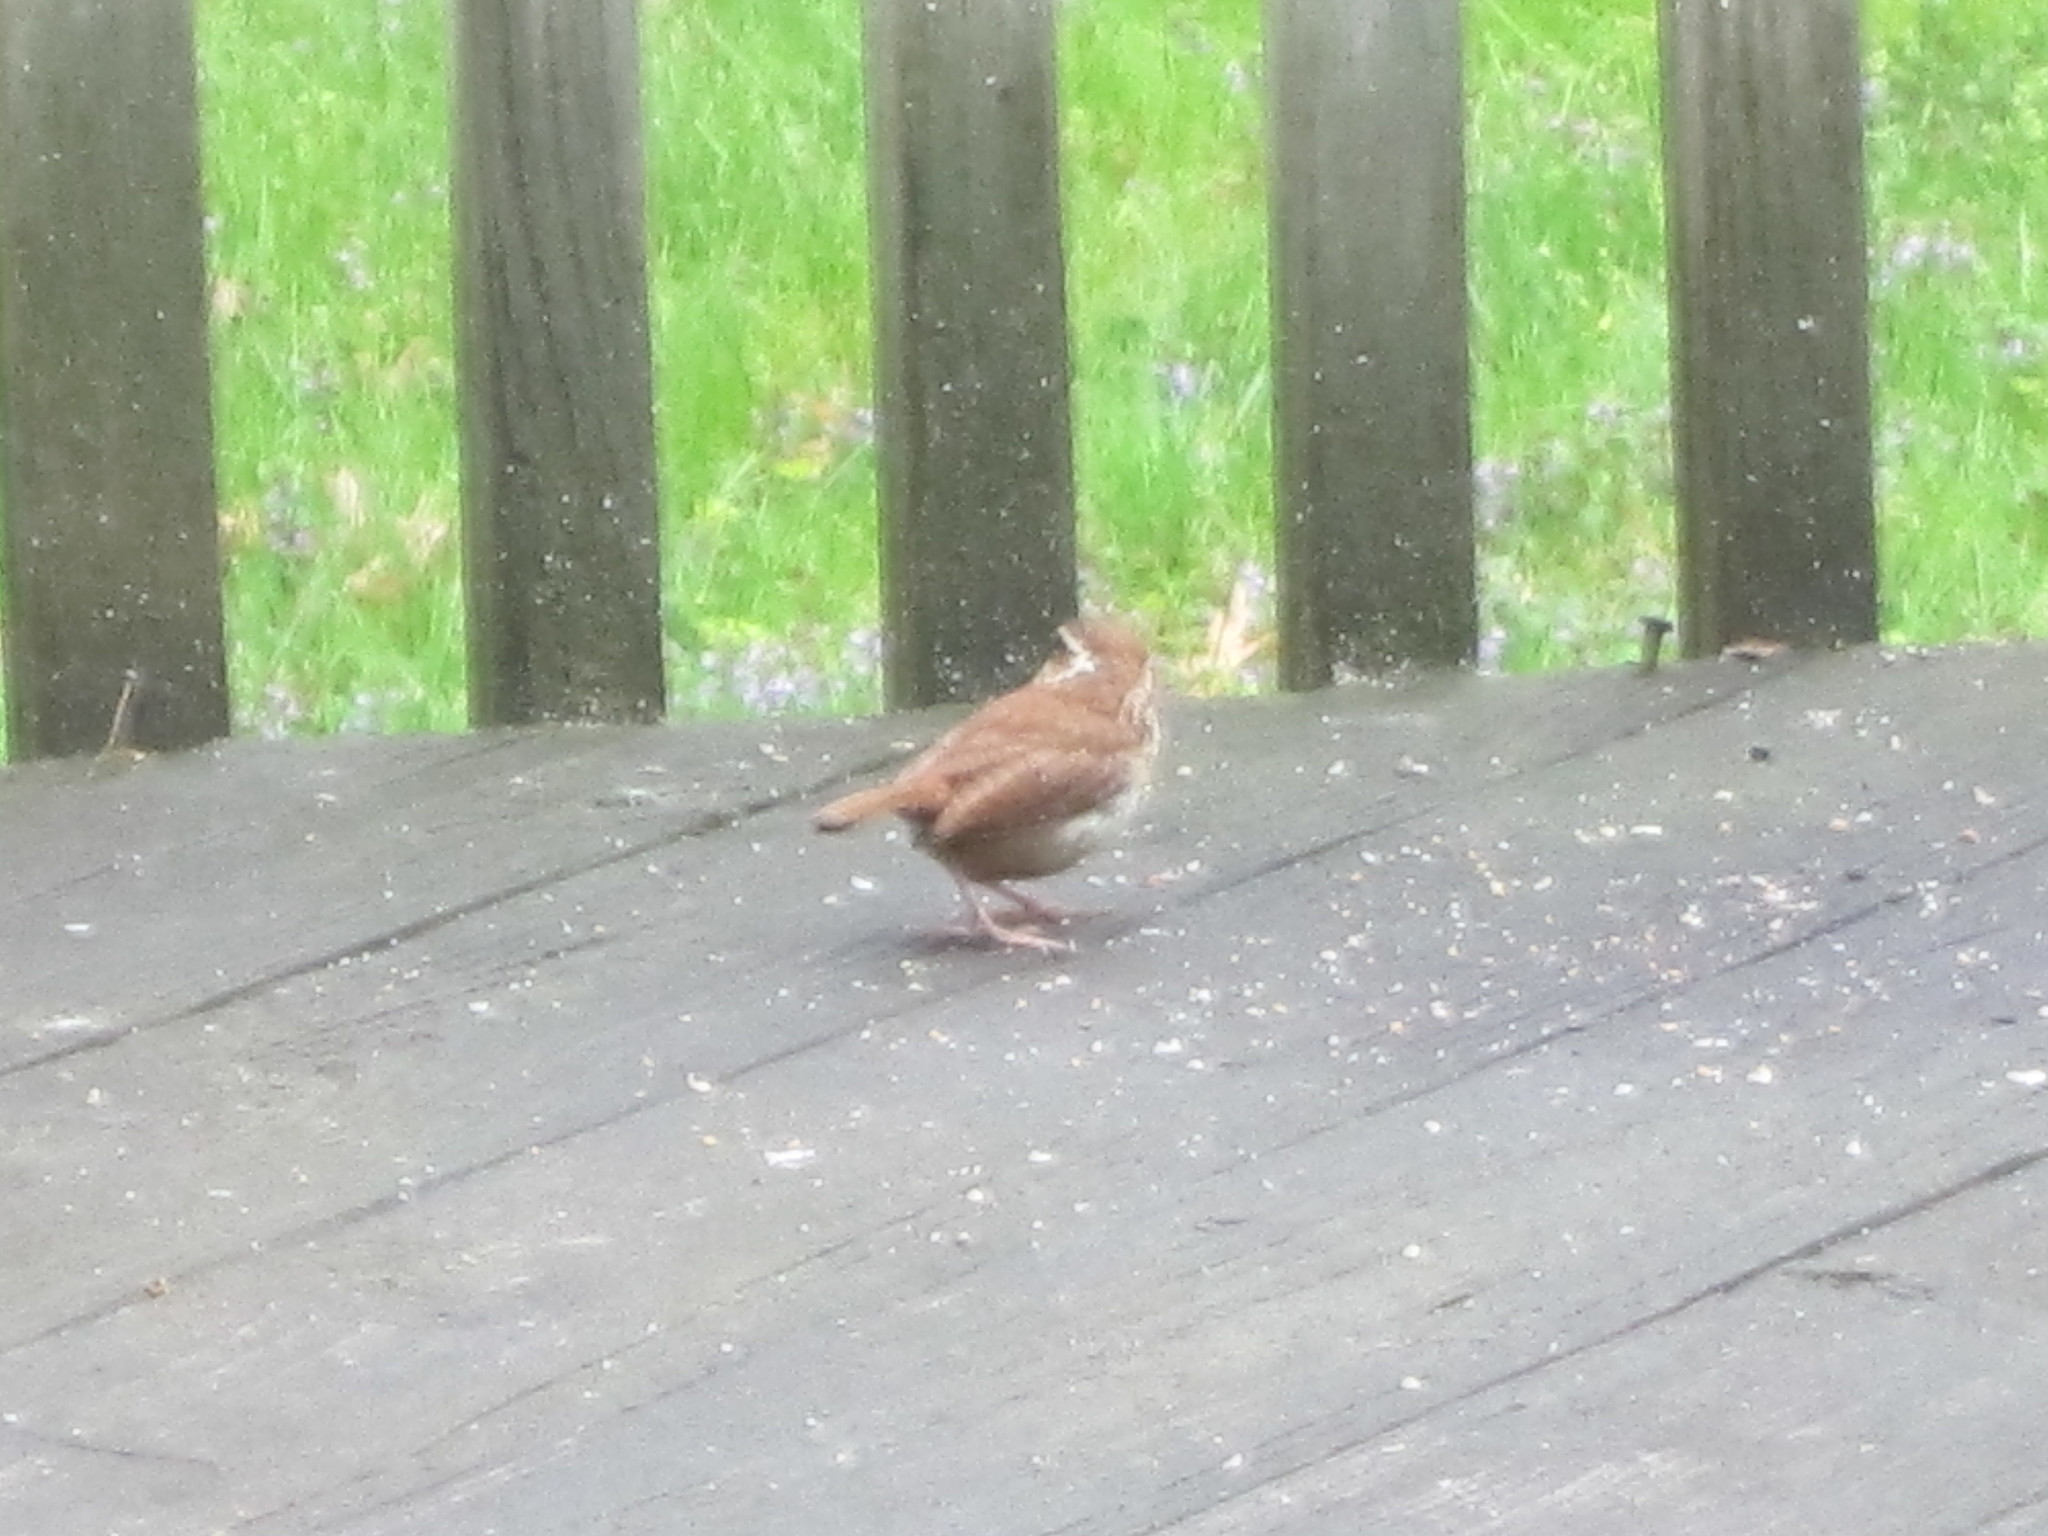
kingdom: Animalia
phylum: Chordata
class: Aves
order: Passeriformes
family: Troglodytidae
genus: Thryothorus
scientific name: Thryothorus ludovicianus
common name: Carolina wren
